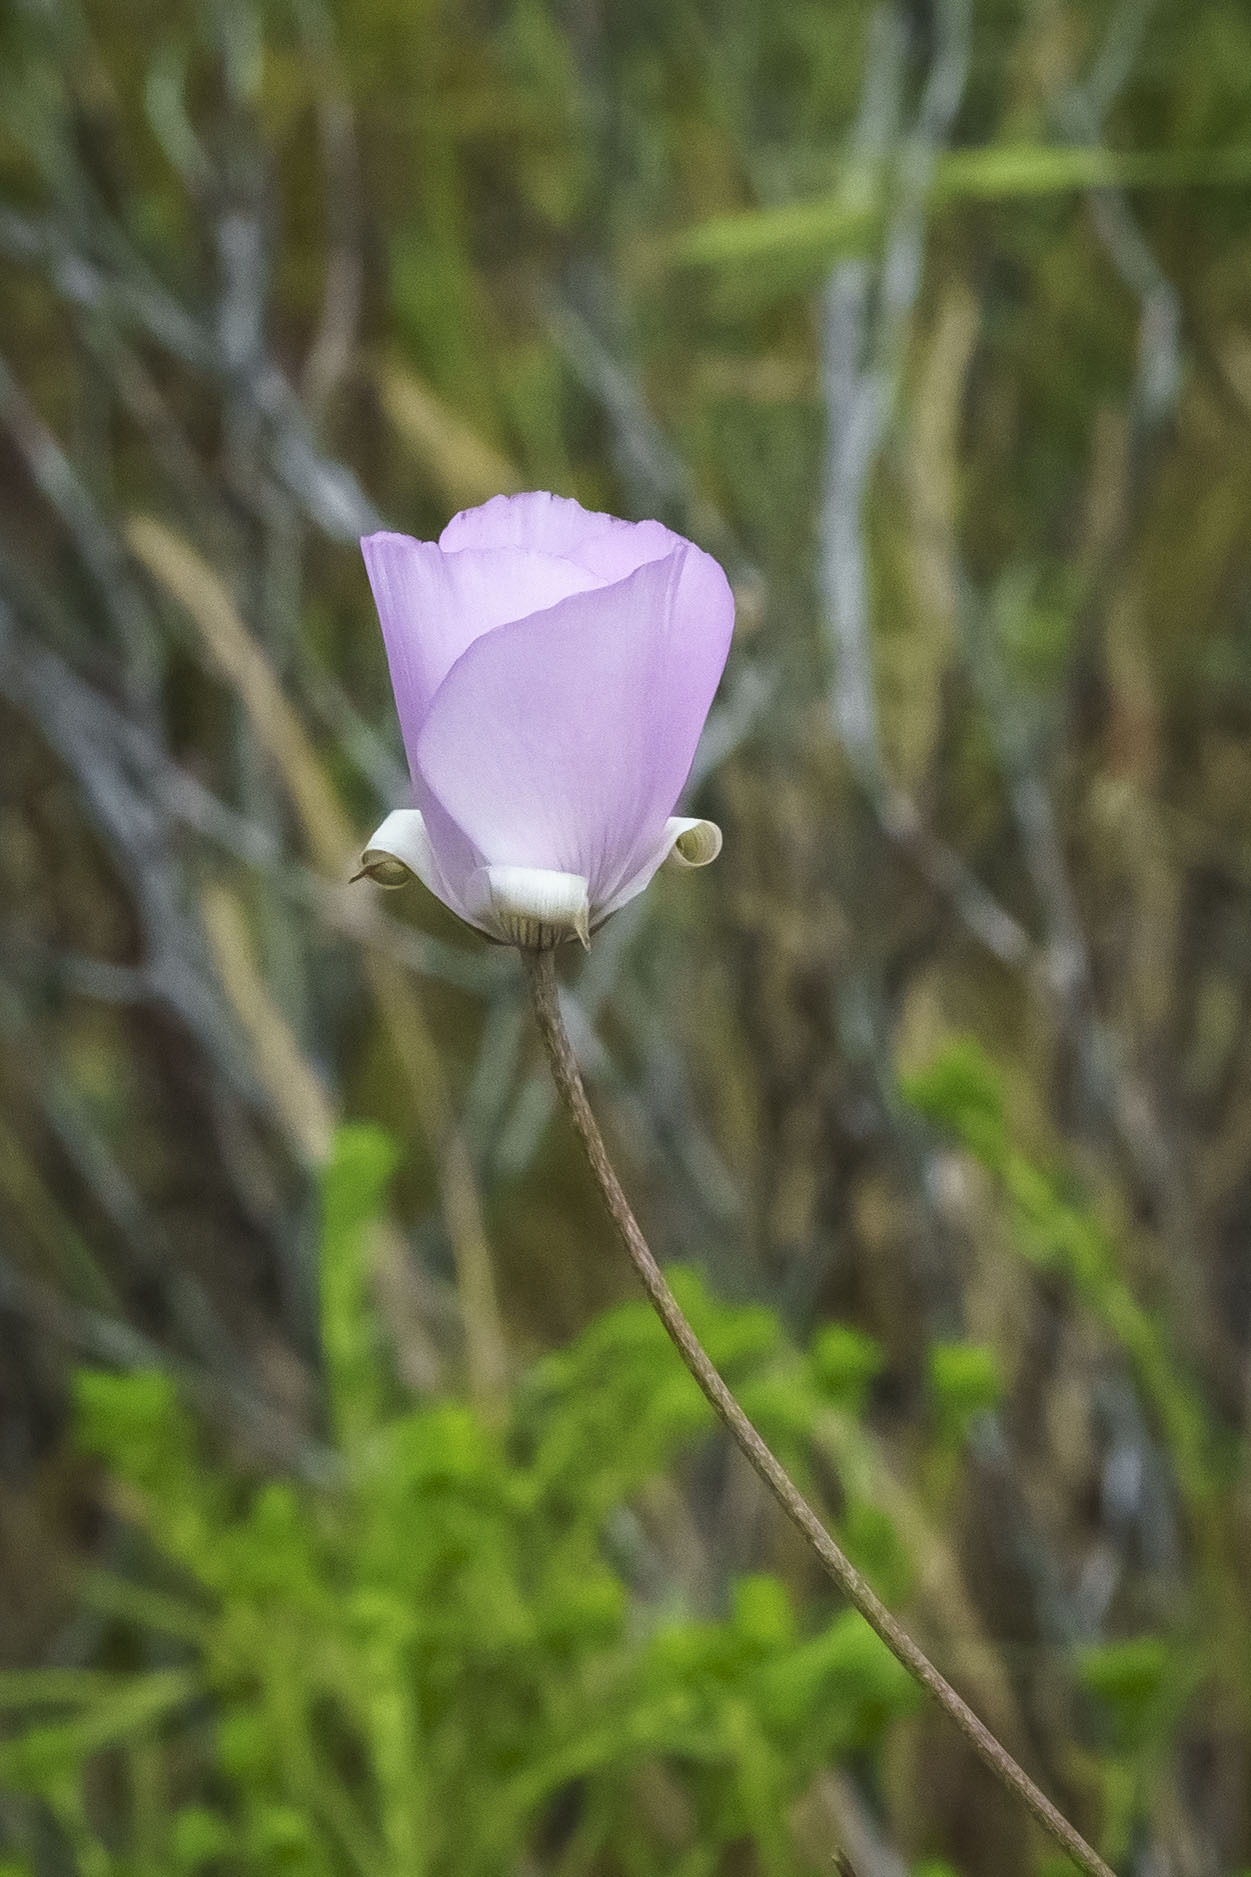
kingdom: Plantae
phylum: Tracheophyta
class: Liliopsida
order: Liliales
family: Liliaceae
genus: Calochortus
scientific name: Calochortus splendens
